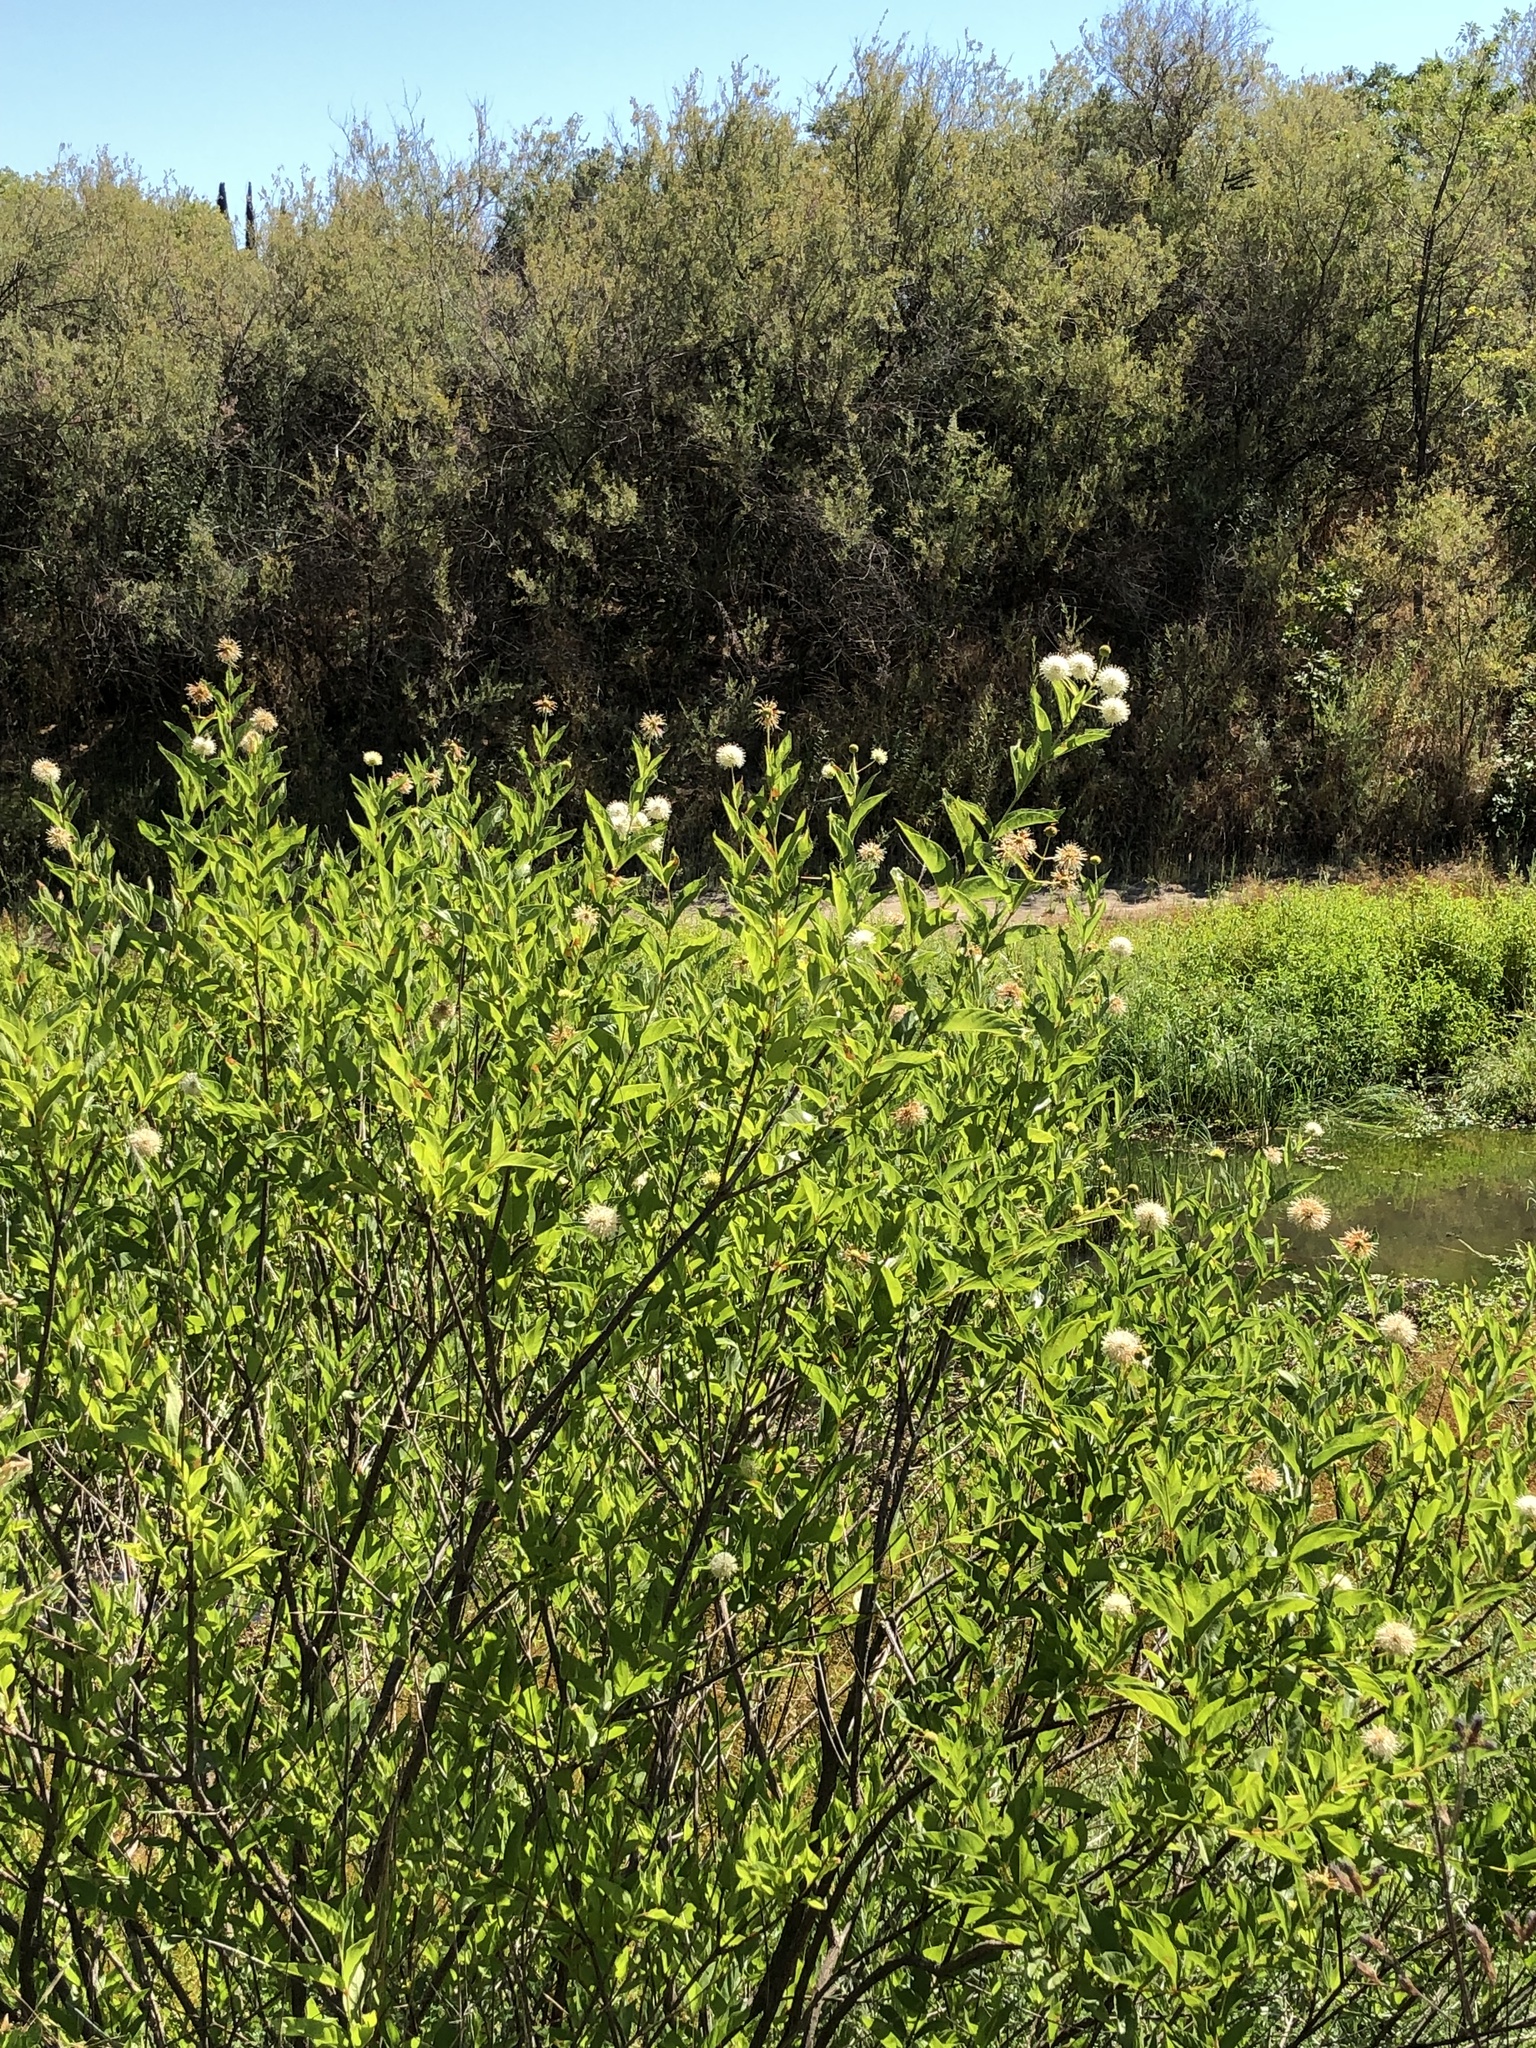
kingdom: Plantae
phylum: Tracheophyta
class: Magnoliopsida
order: Gentianales
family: Rubiaceae
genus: Cephalanthus
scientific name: Cephalanthus occidentalis
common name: Button-willow
